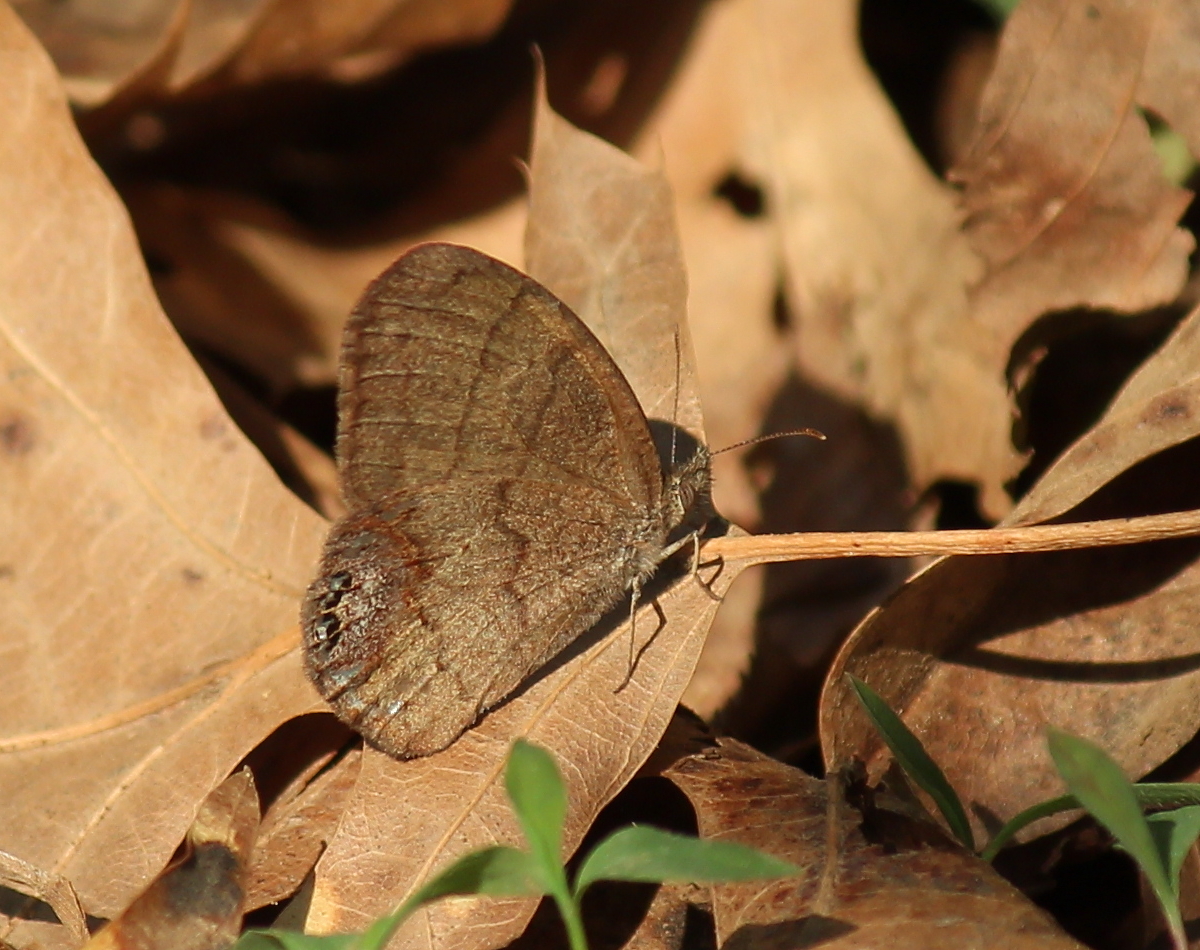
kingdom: Animalia
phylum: Arthropoda
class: Insecta
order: Lepidoptera
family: Nymphalidae
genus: Euptychia
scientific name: Euptychia cornelius
